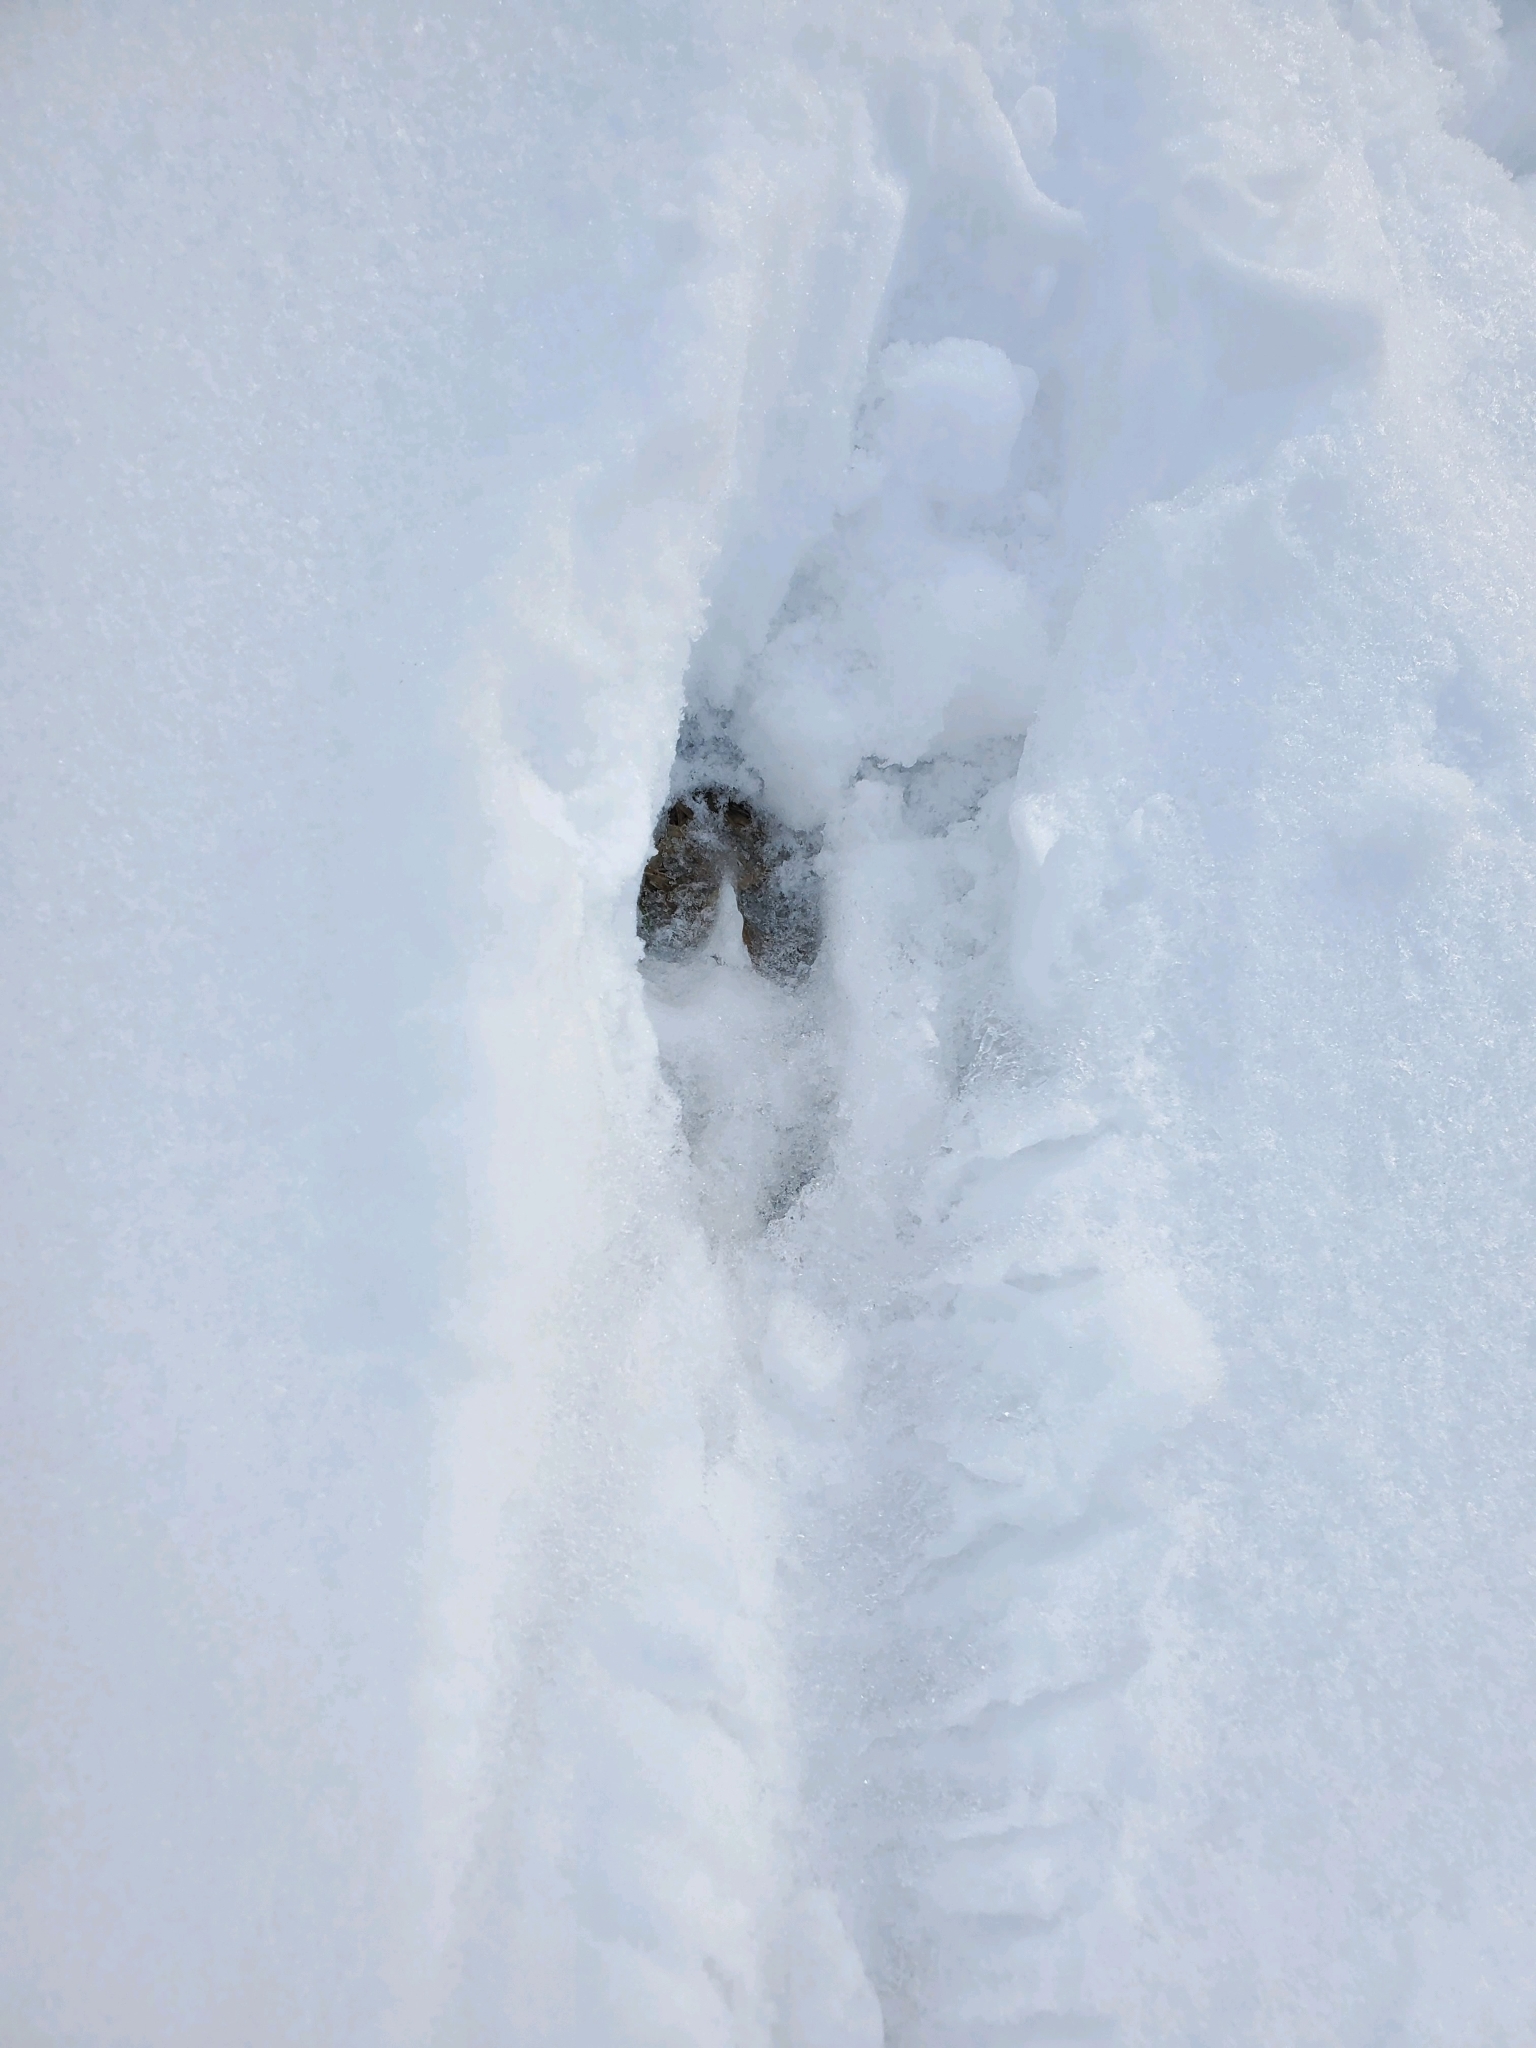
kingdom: Animalia
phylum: Chordata
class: Mammalia
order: Artiodactyla
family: Cervidae
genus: Odocoileus
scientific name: Odocoileus virginianus
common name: White-tailed deer
